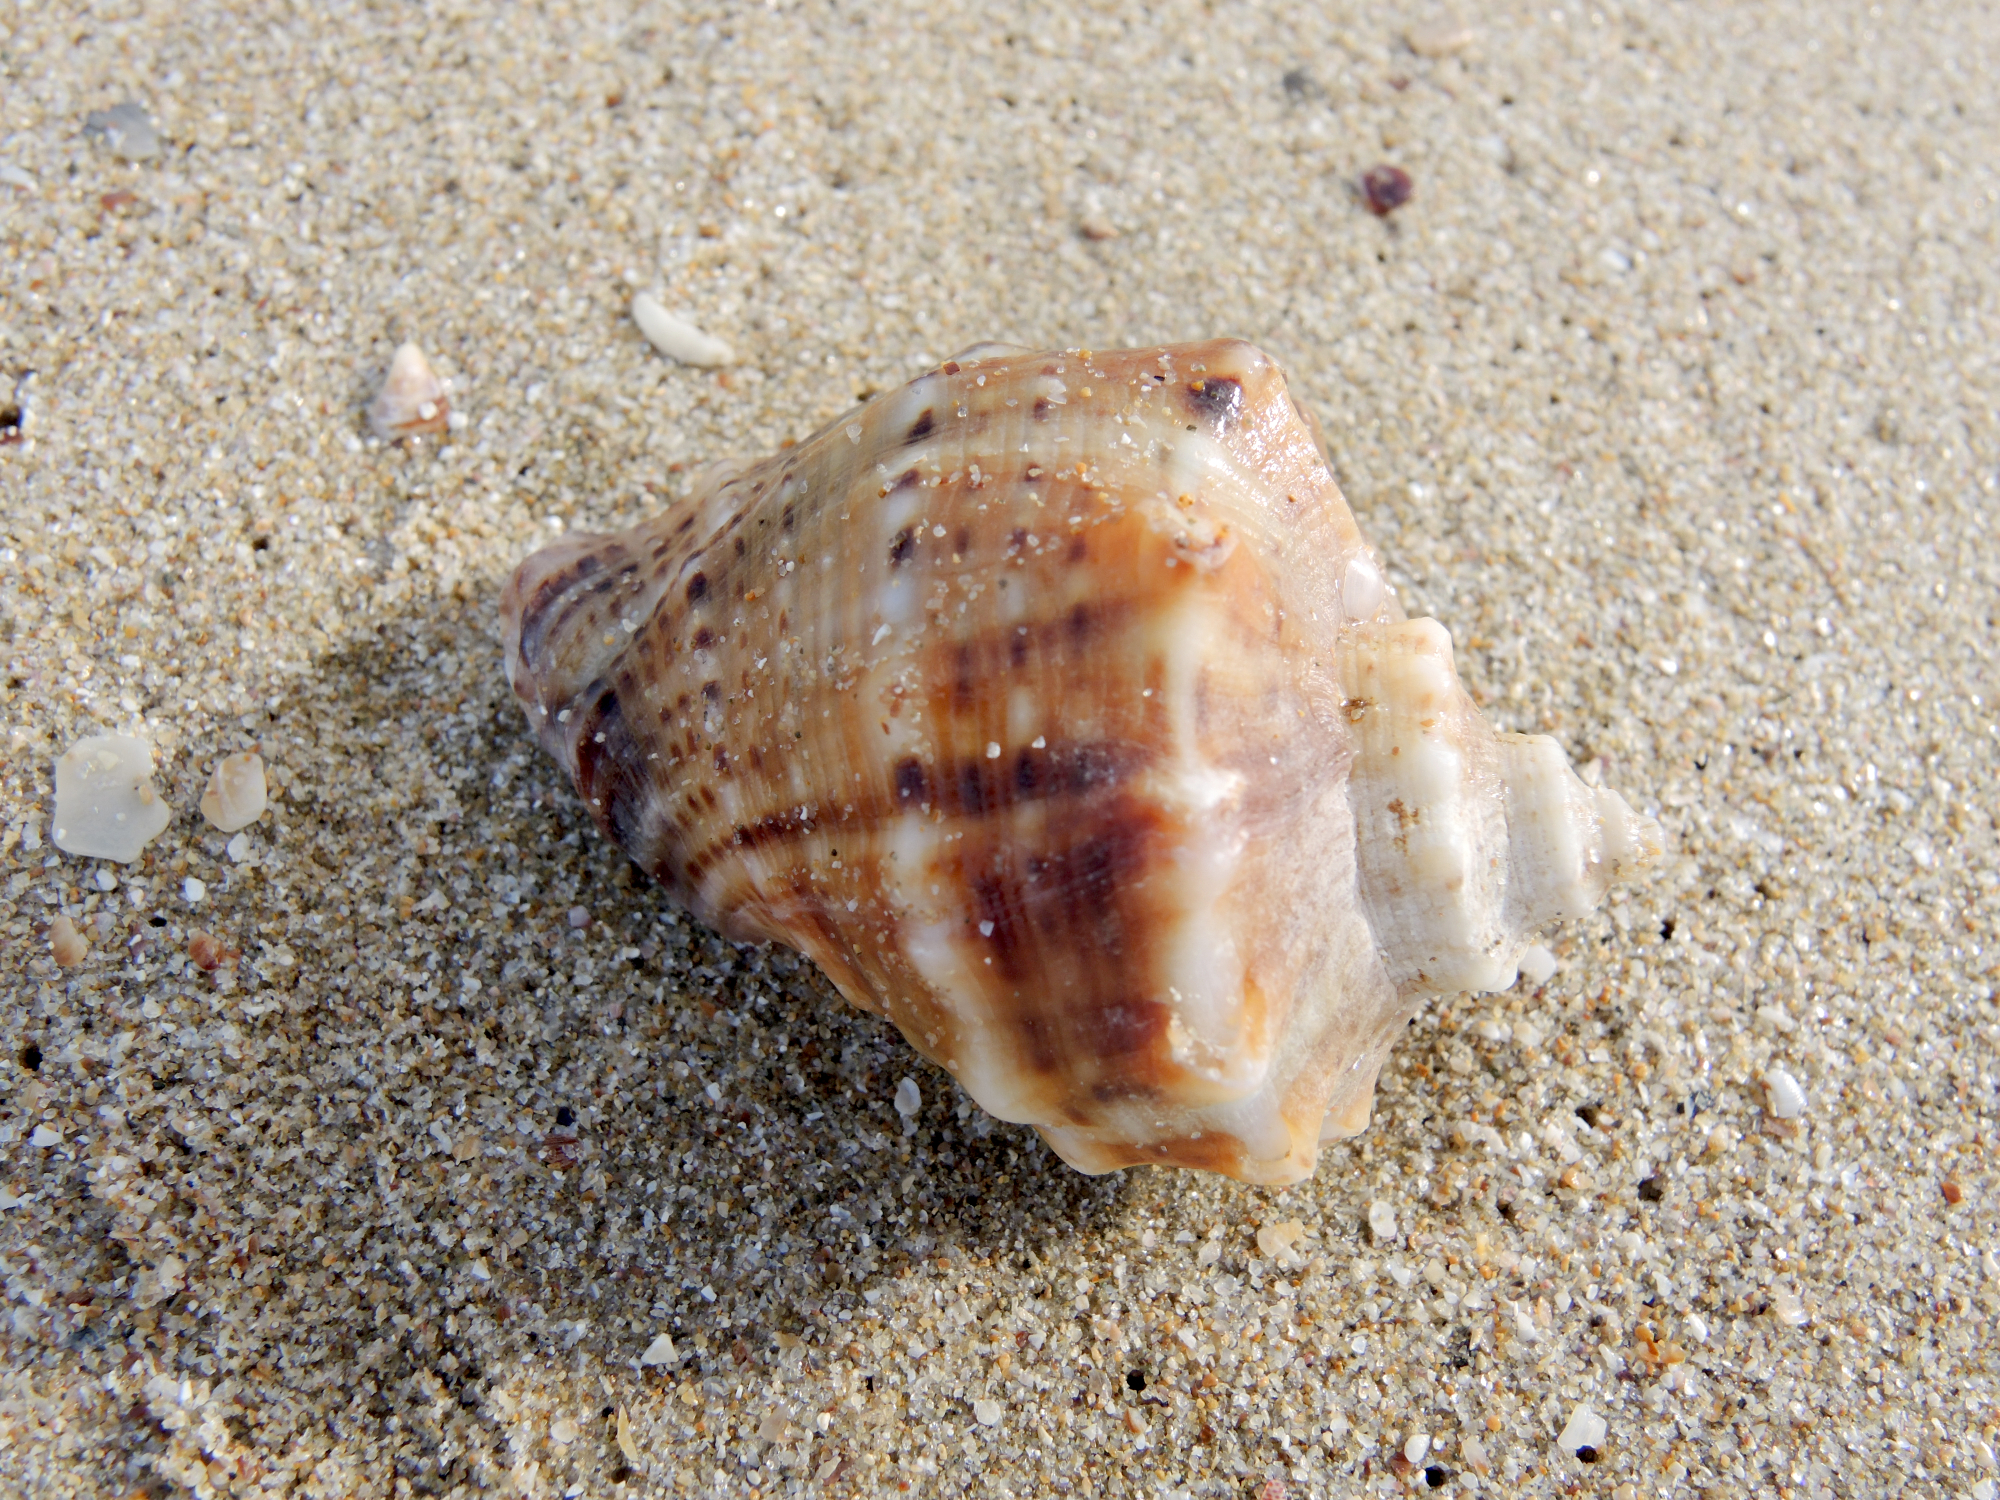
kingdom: Animalia
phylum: Mollusca
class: Gastropoda
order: Neogastropoda
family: Muricidae
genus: Rapana
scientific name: Rapana venosa
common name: Veined rapa whelk
